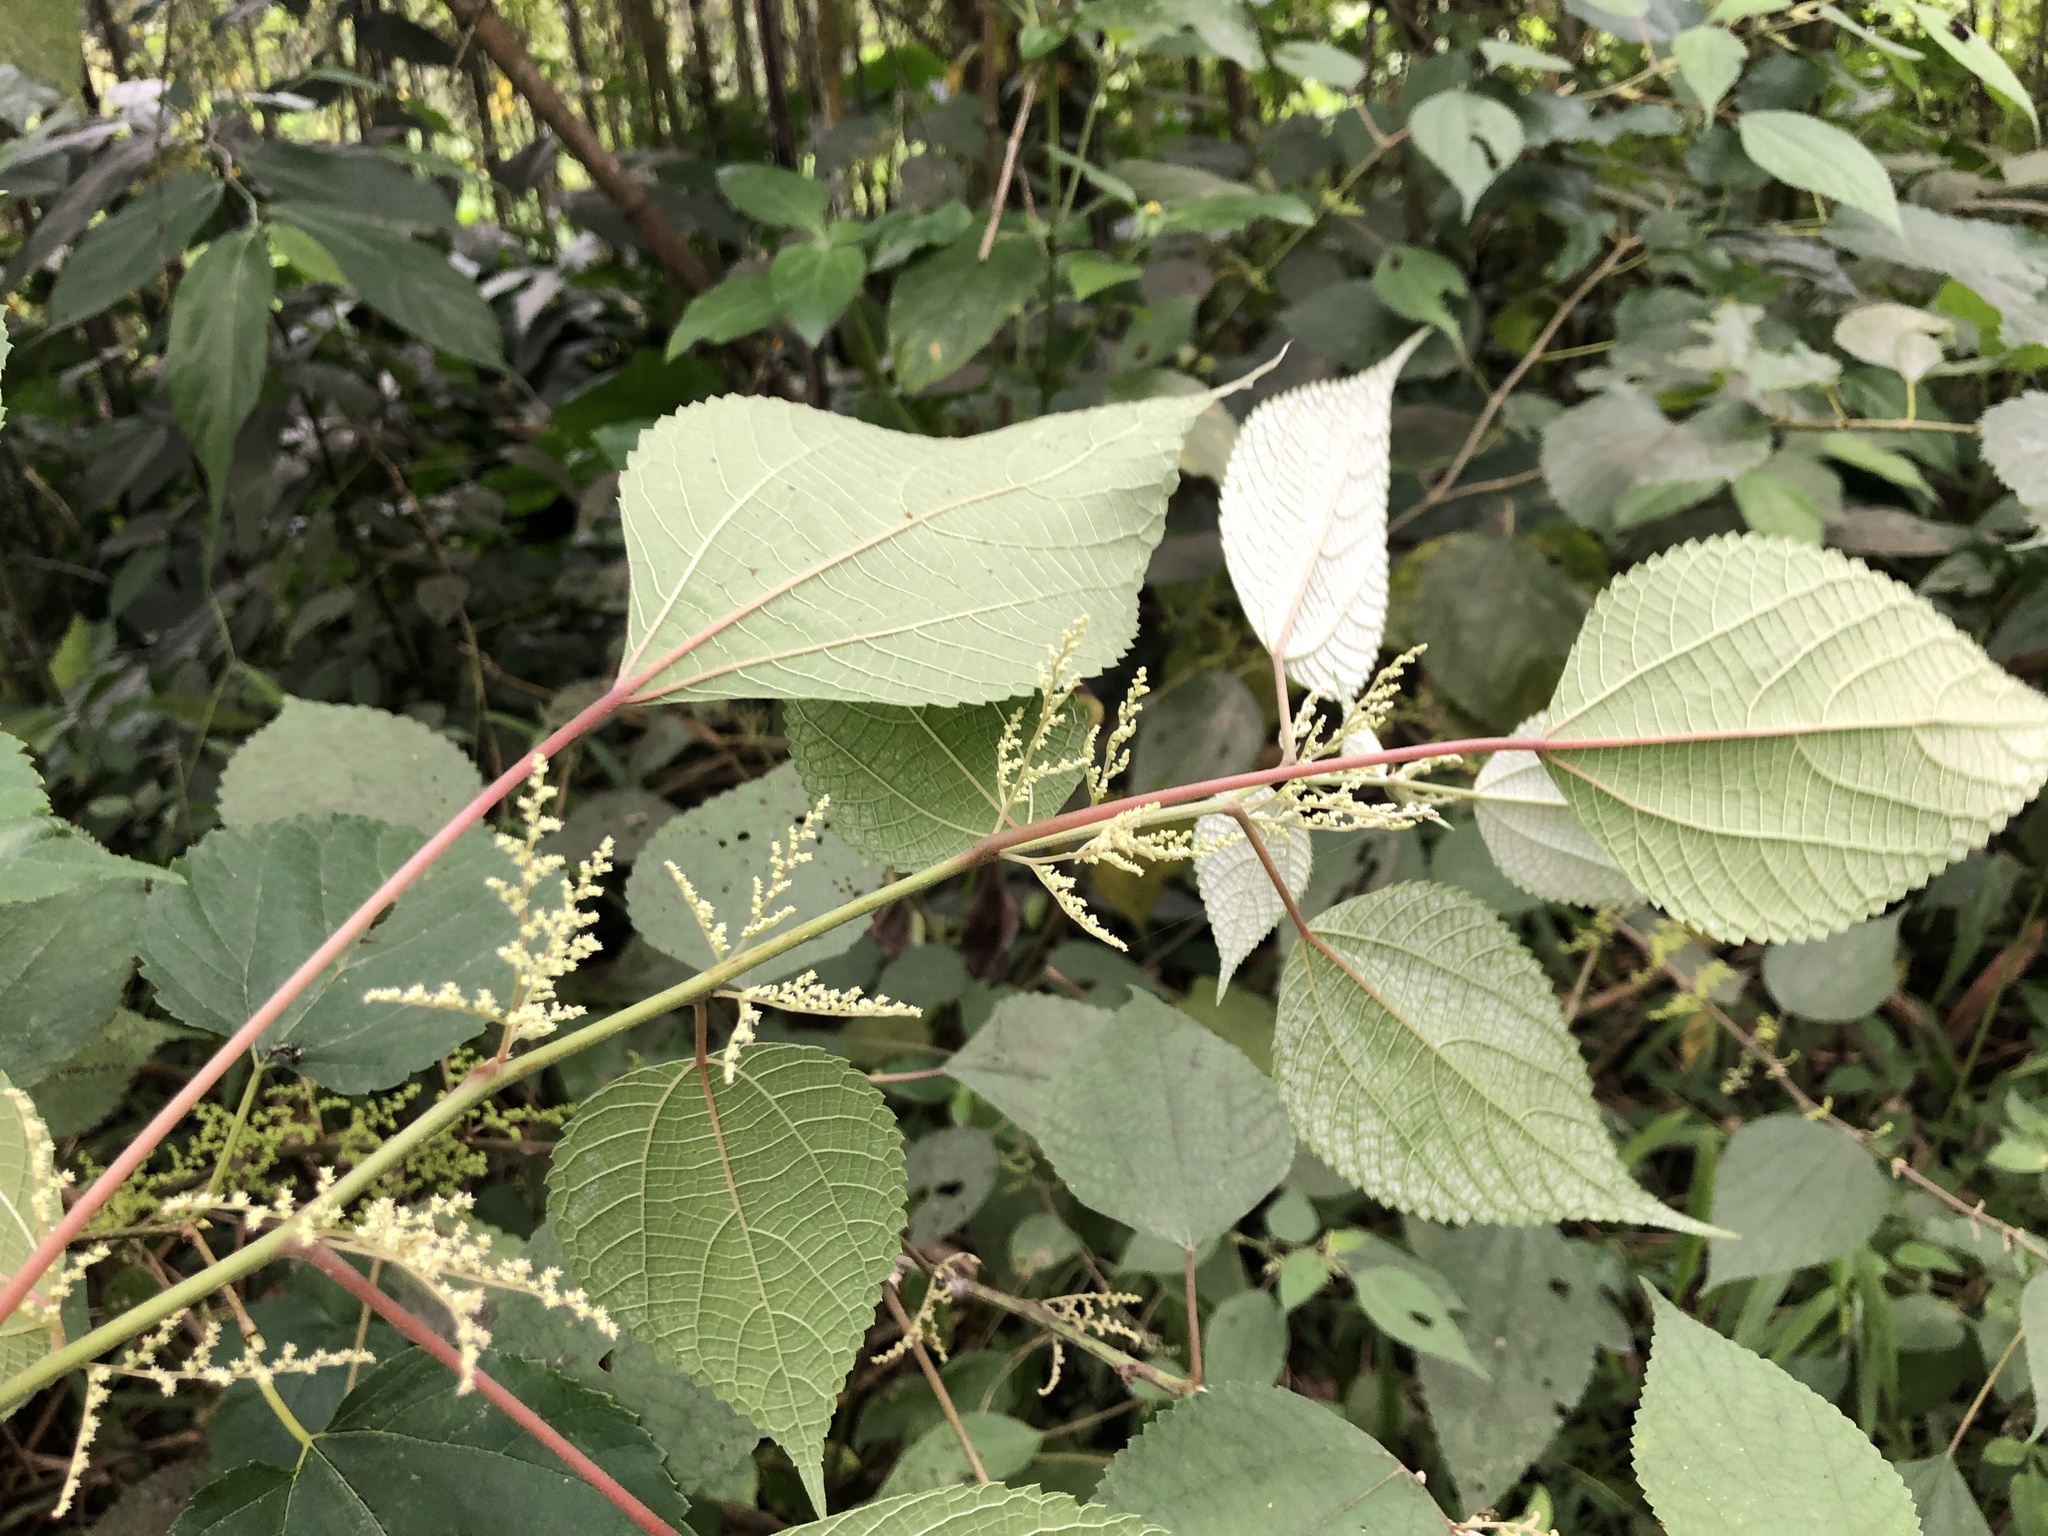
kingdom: Plantae
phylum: Tracheophyta
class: Magnoliopsida
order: Rosales
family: Urticaceae
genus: Boehmeria
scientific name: Boehmeria nivea
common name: Ramie chinese grass
